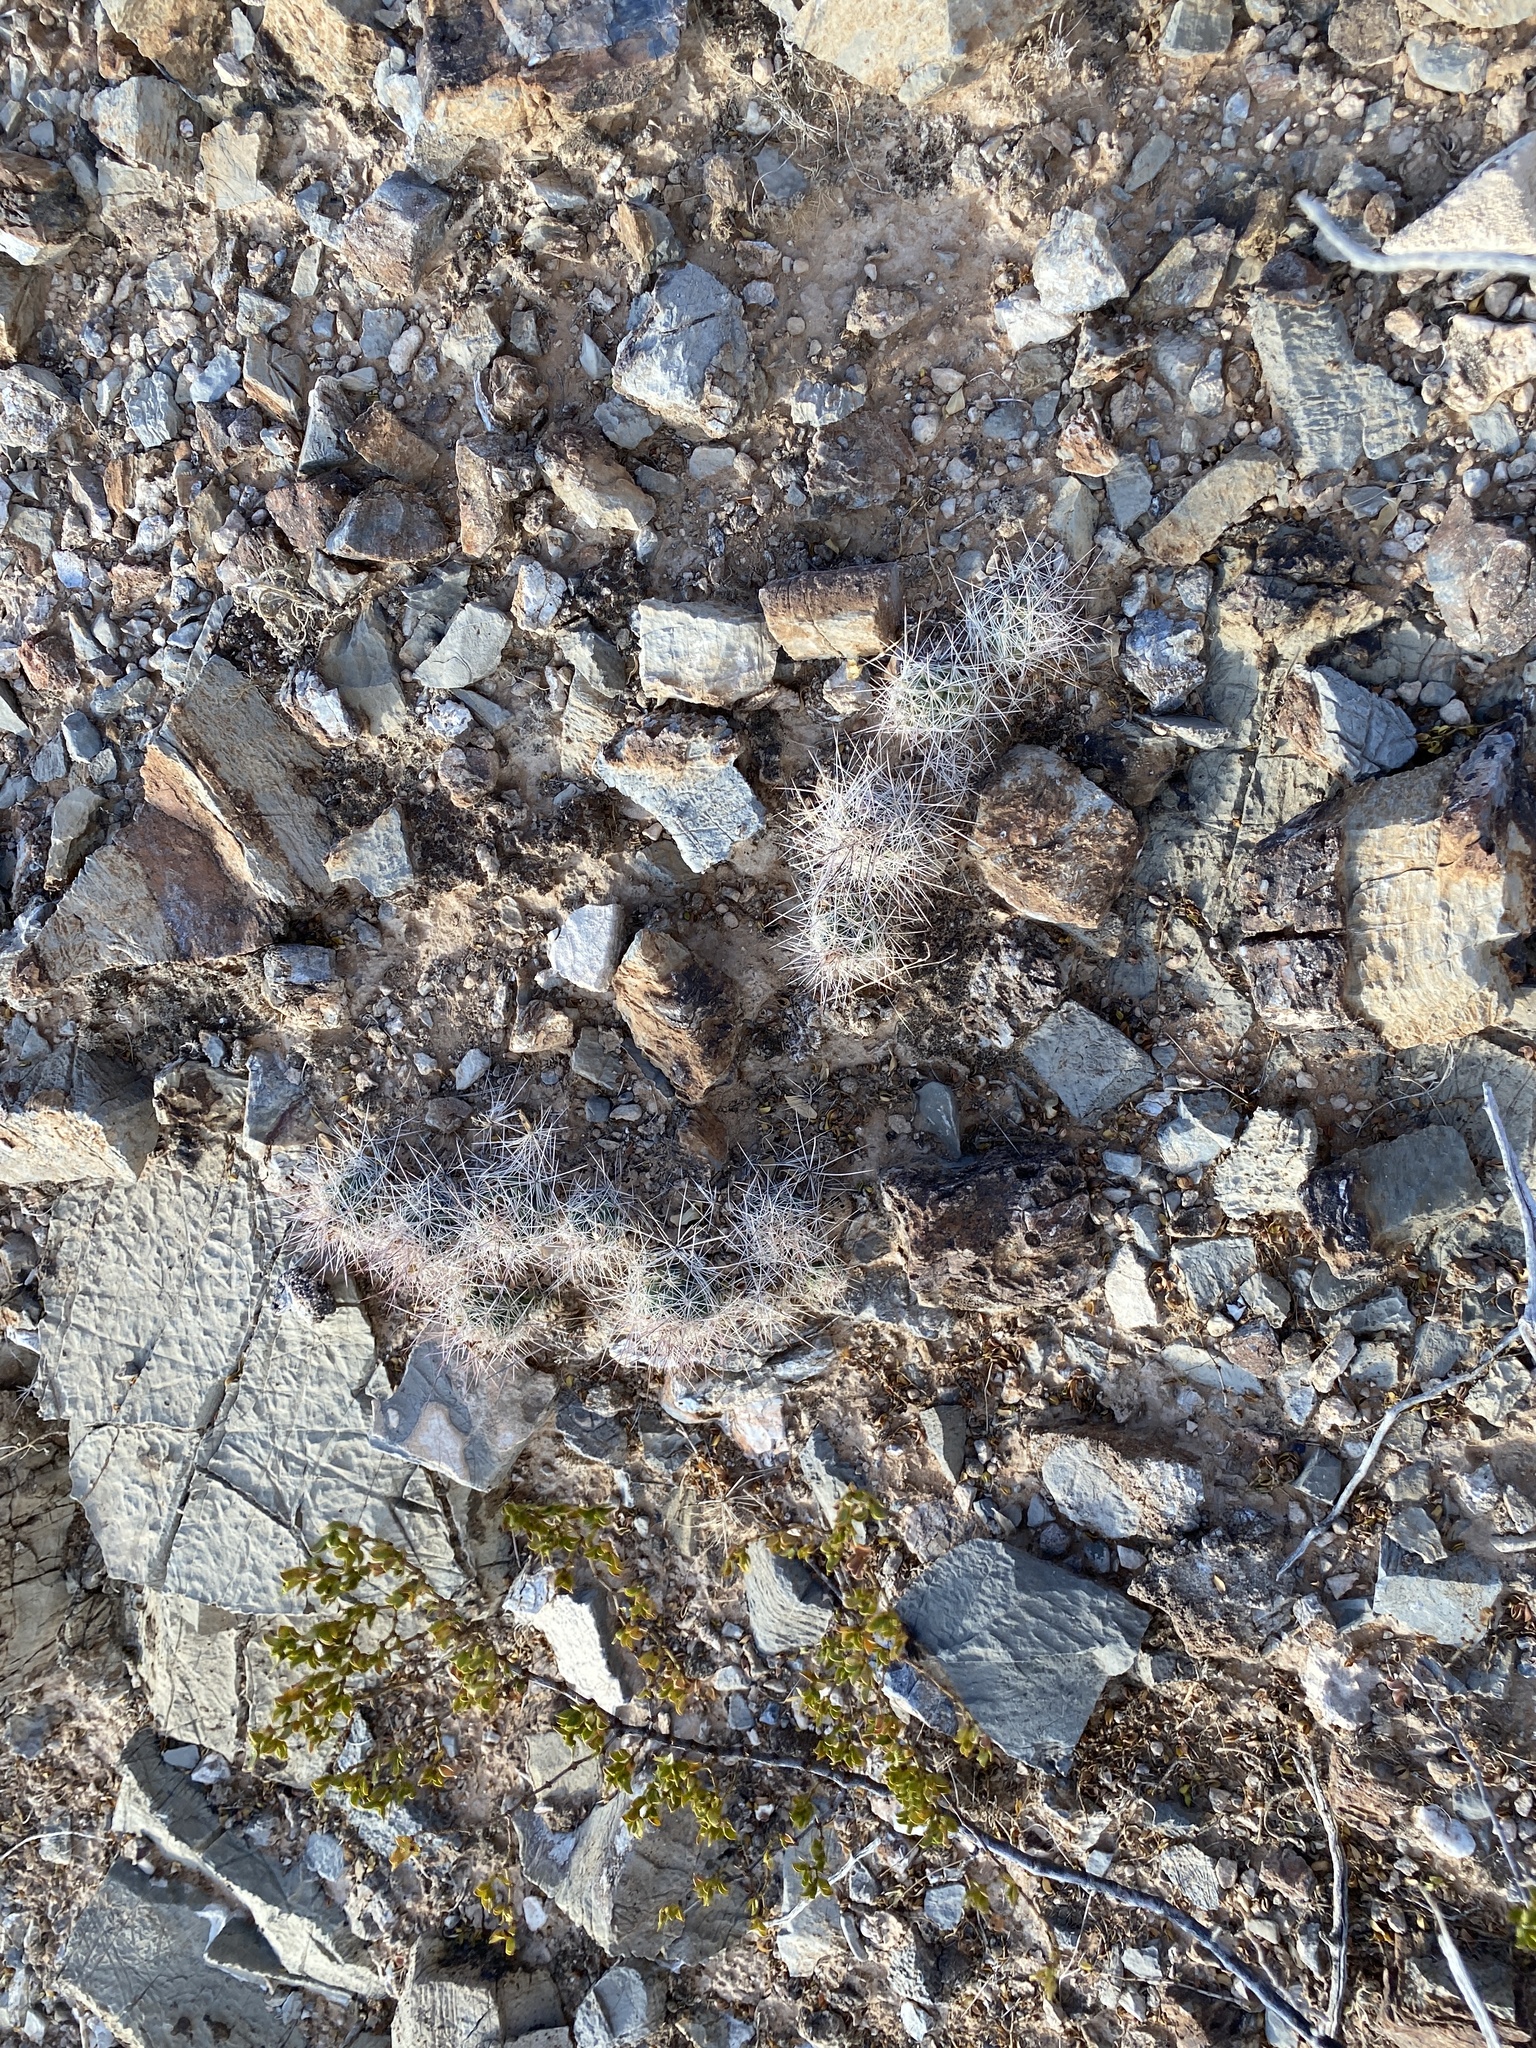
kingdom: Plantae
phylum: Tracheophyta
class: Magnoliopsida
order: Caryophyllales
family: Cactaceae
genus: Coryphantha
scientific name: Coryphantha macromeris
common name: Nipple beehive cactus
